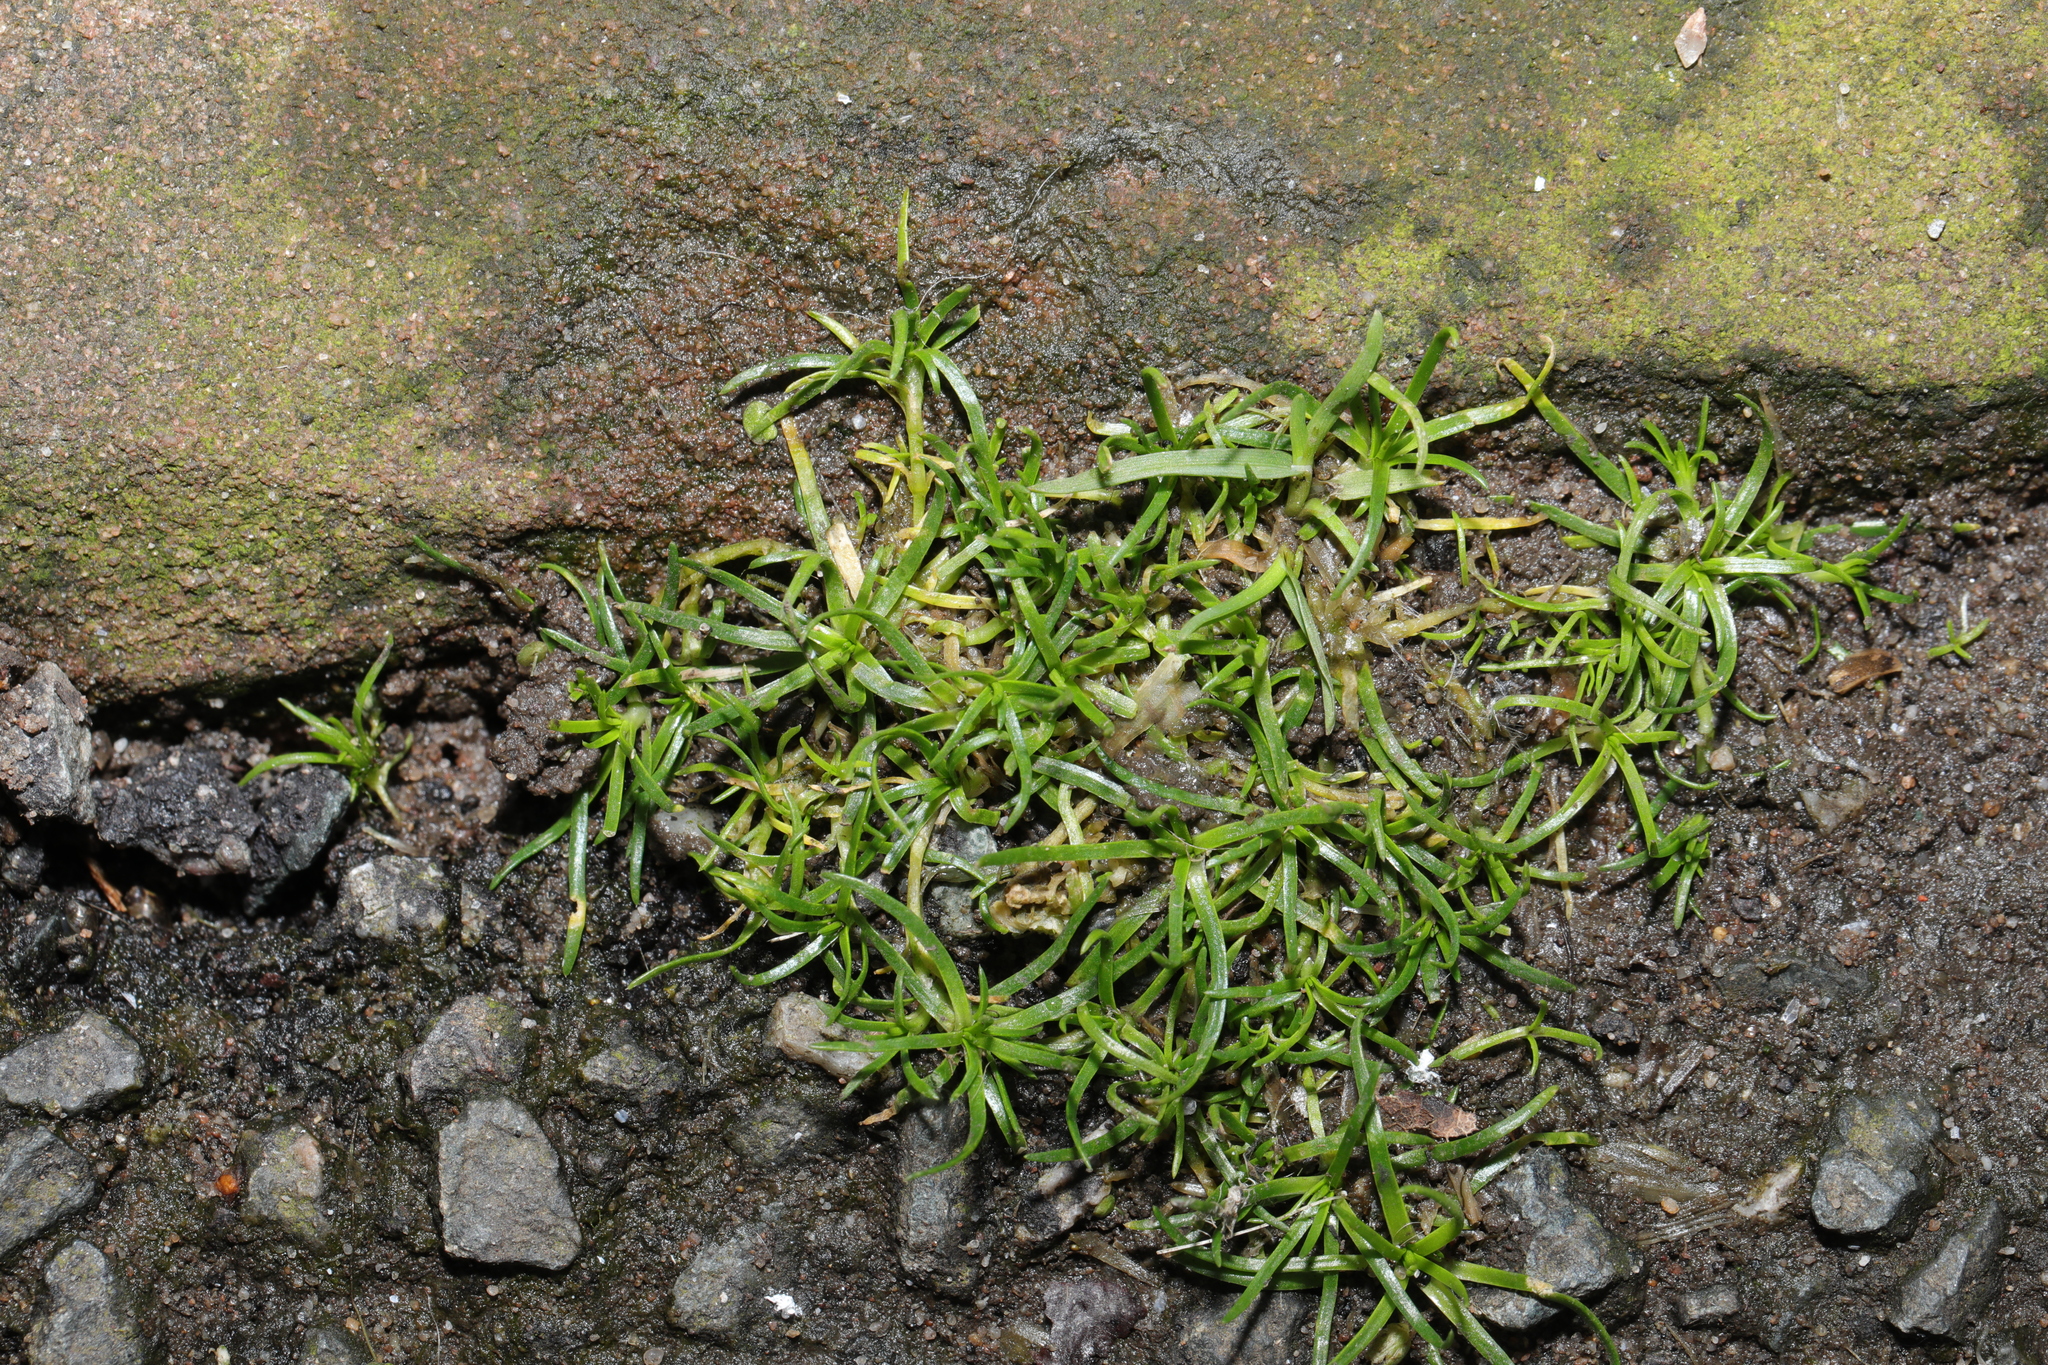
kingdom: Plantae
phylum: Tracheophyta
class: Magnoliopsida
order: Caryophyllales
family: Caryophyllaceae
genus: Sagina
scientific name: Sagina procumbens
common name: Procumbent pearlwort
